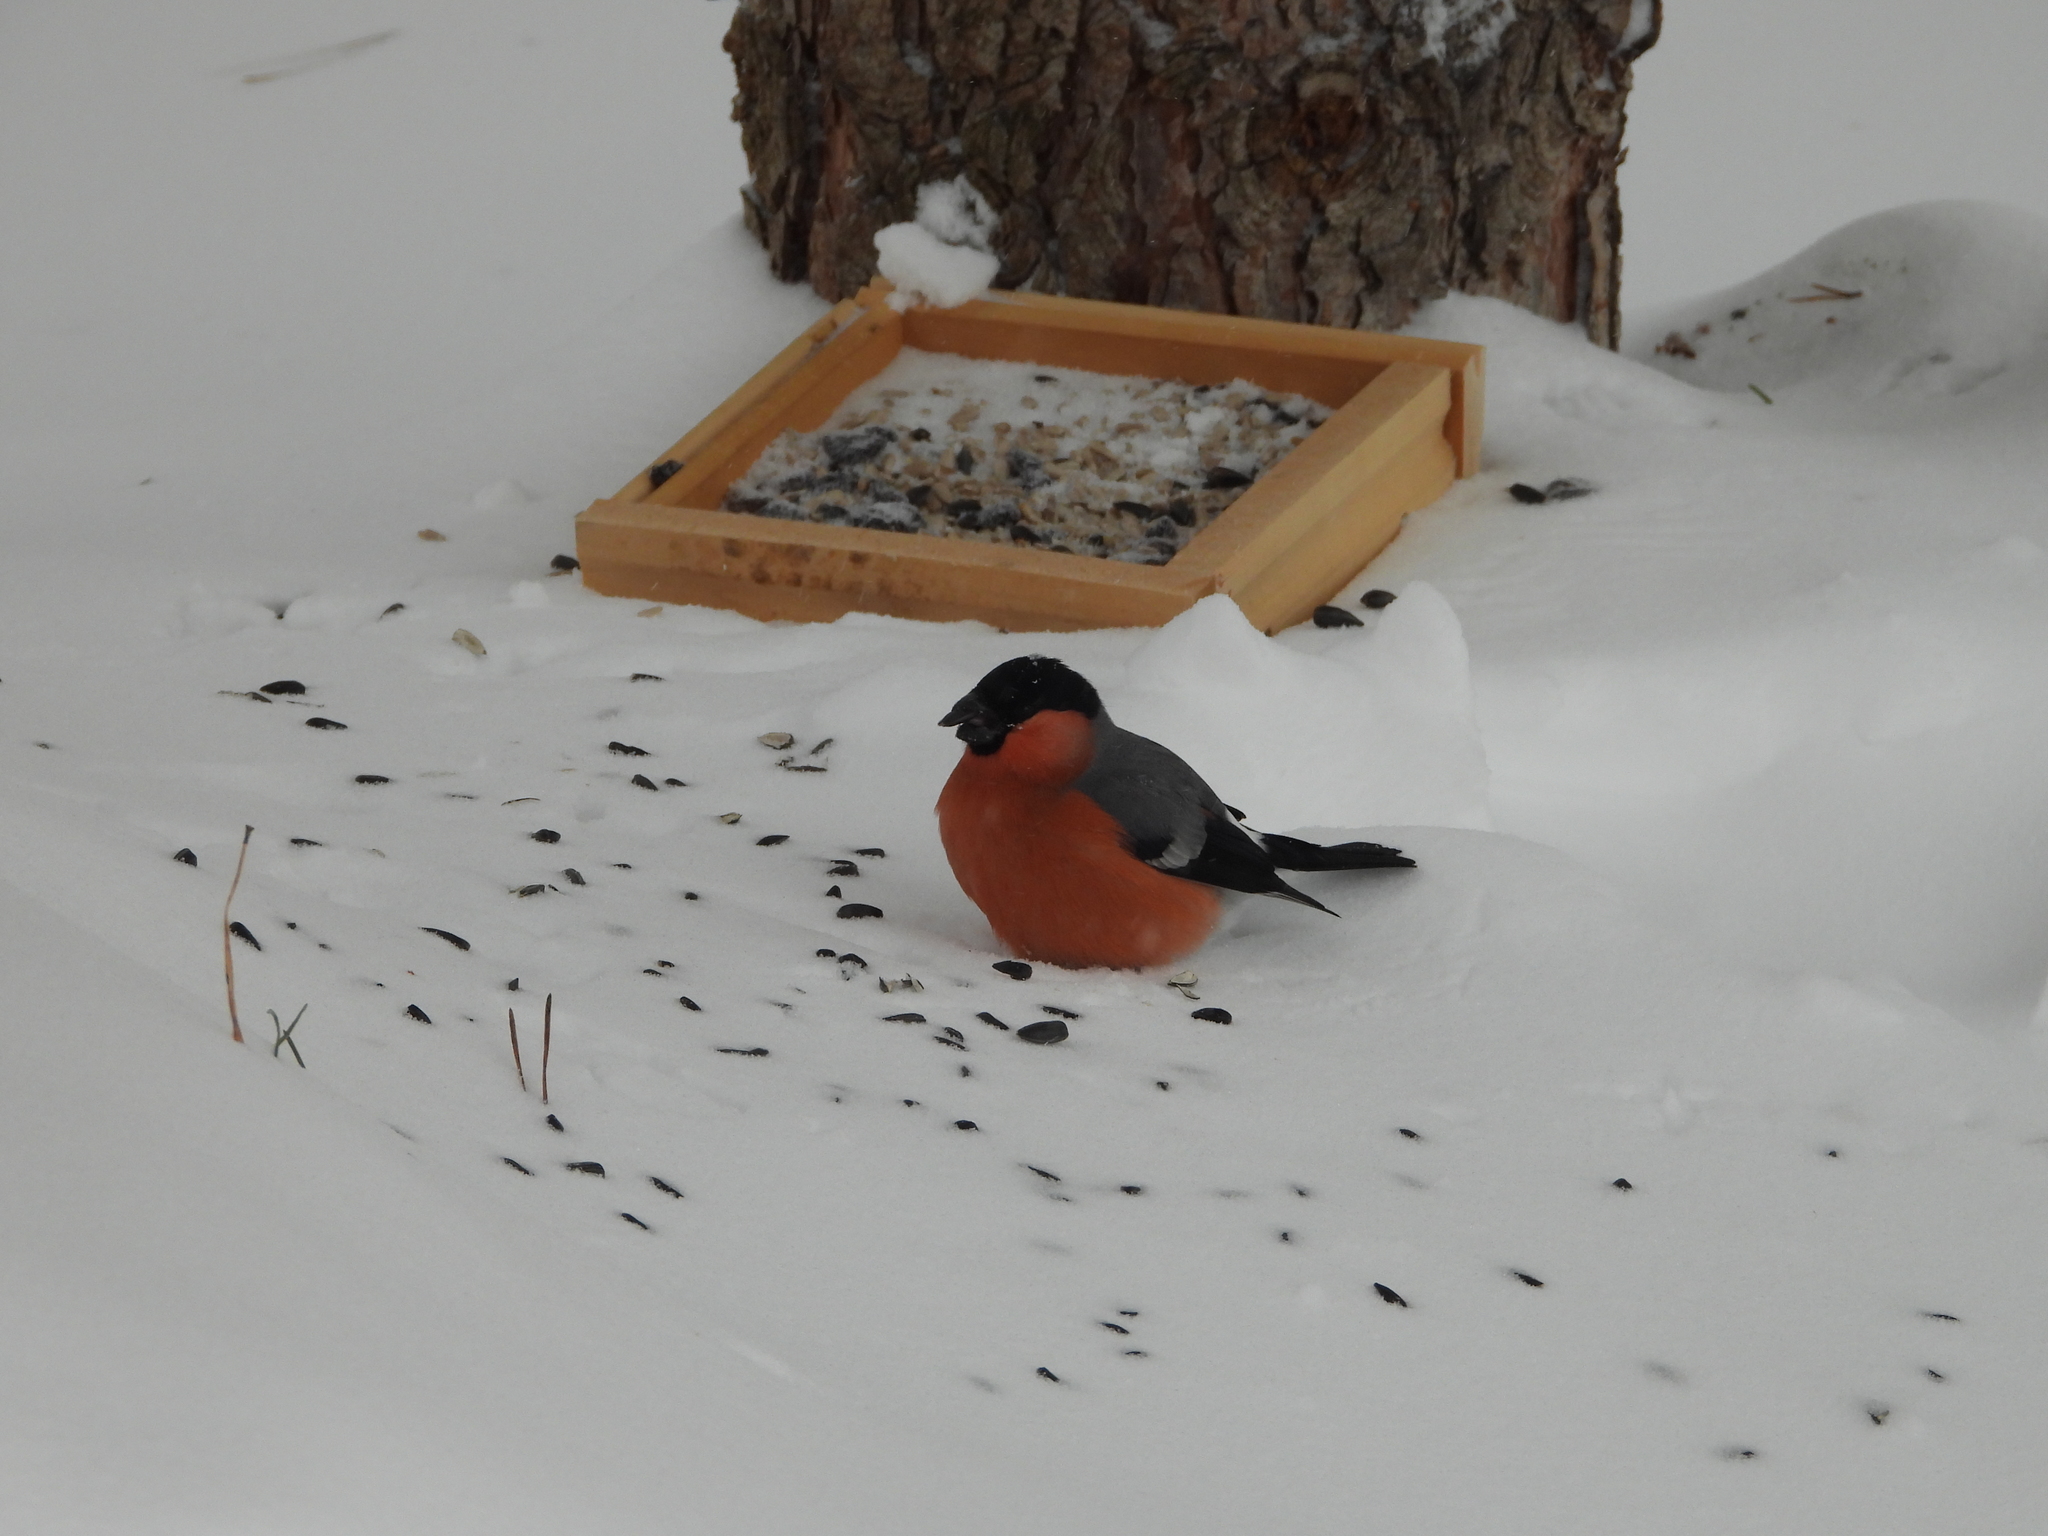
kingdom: Animalia
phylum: Chordata
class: Aves
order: Passeriformes
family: Fringillidae
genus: Pyrrhula
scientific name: Pyrrhula pyrrhula
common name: Eurasian bullfinch
